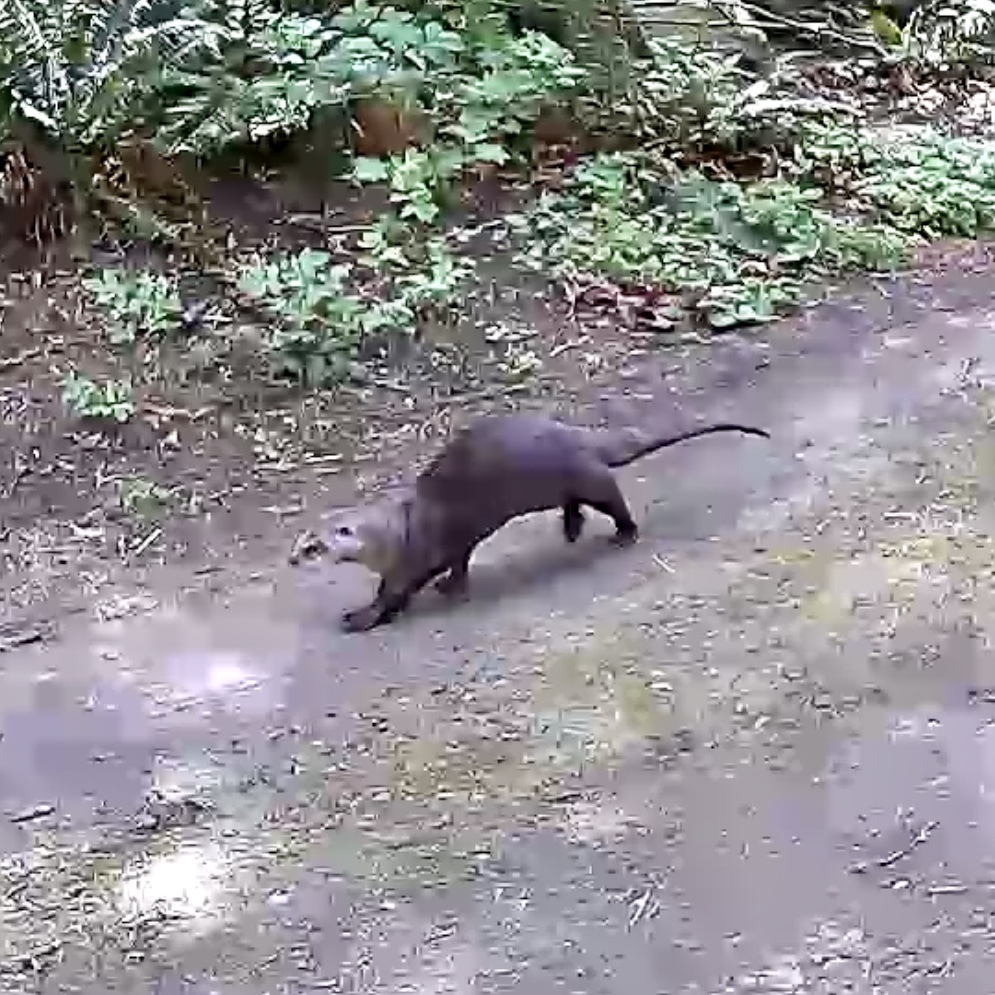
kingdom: Animalia
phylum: Chordata
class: Mammalia
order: Carnivora
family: Mustelidae
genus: Lontra
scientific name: Lontra canadensis
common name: North american river otter
